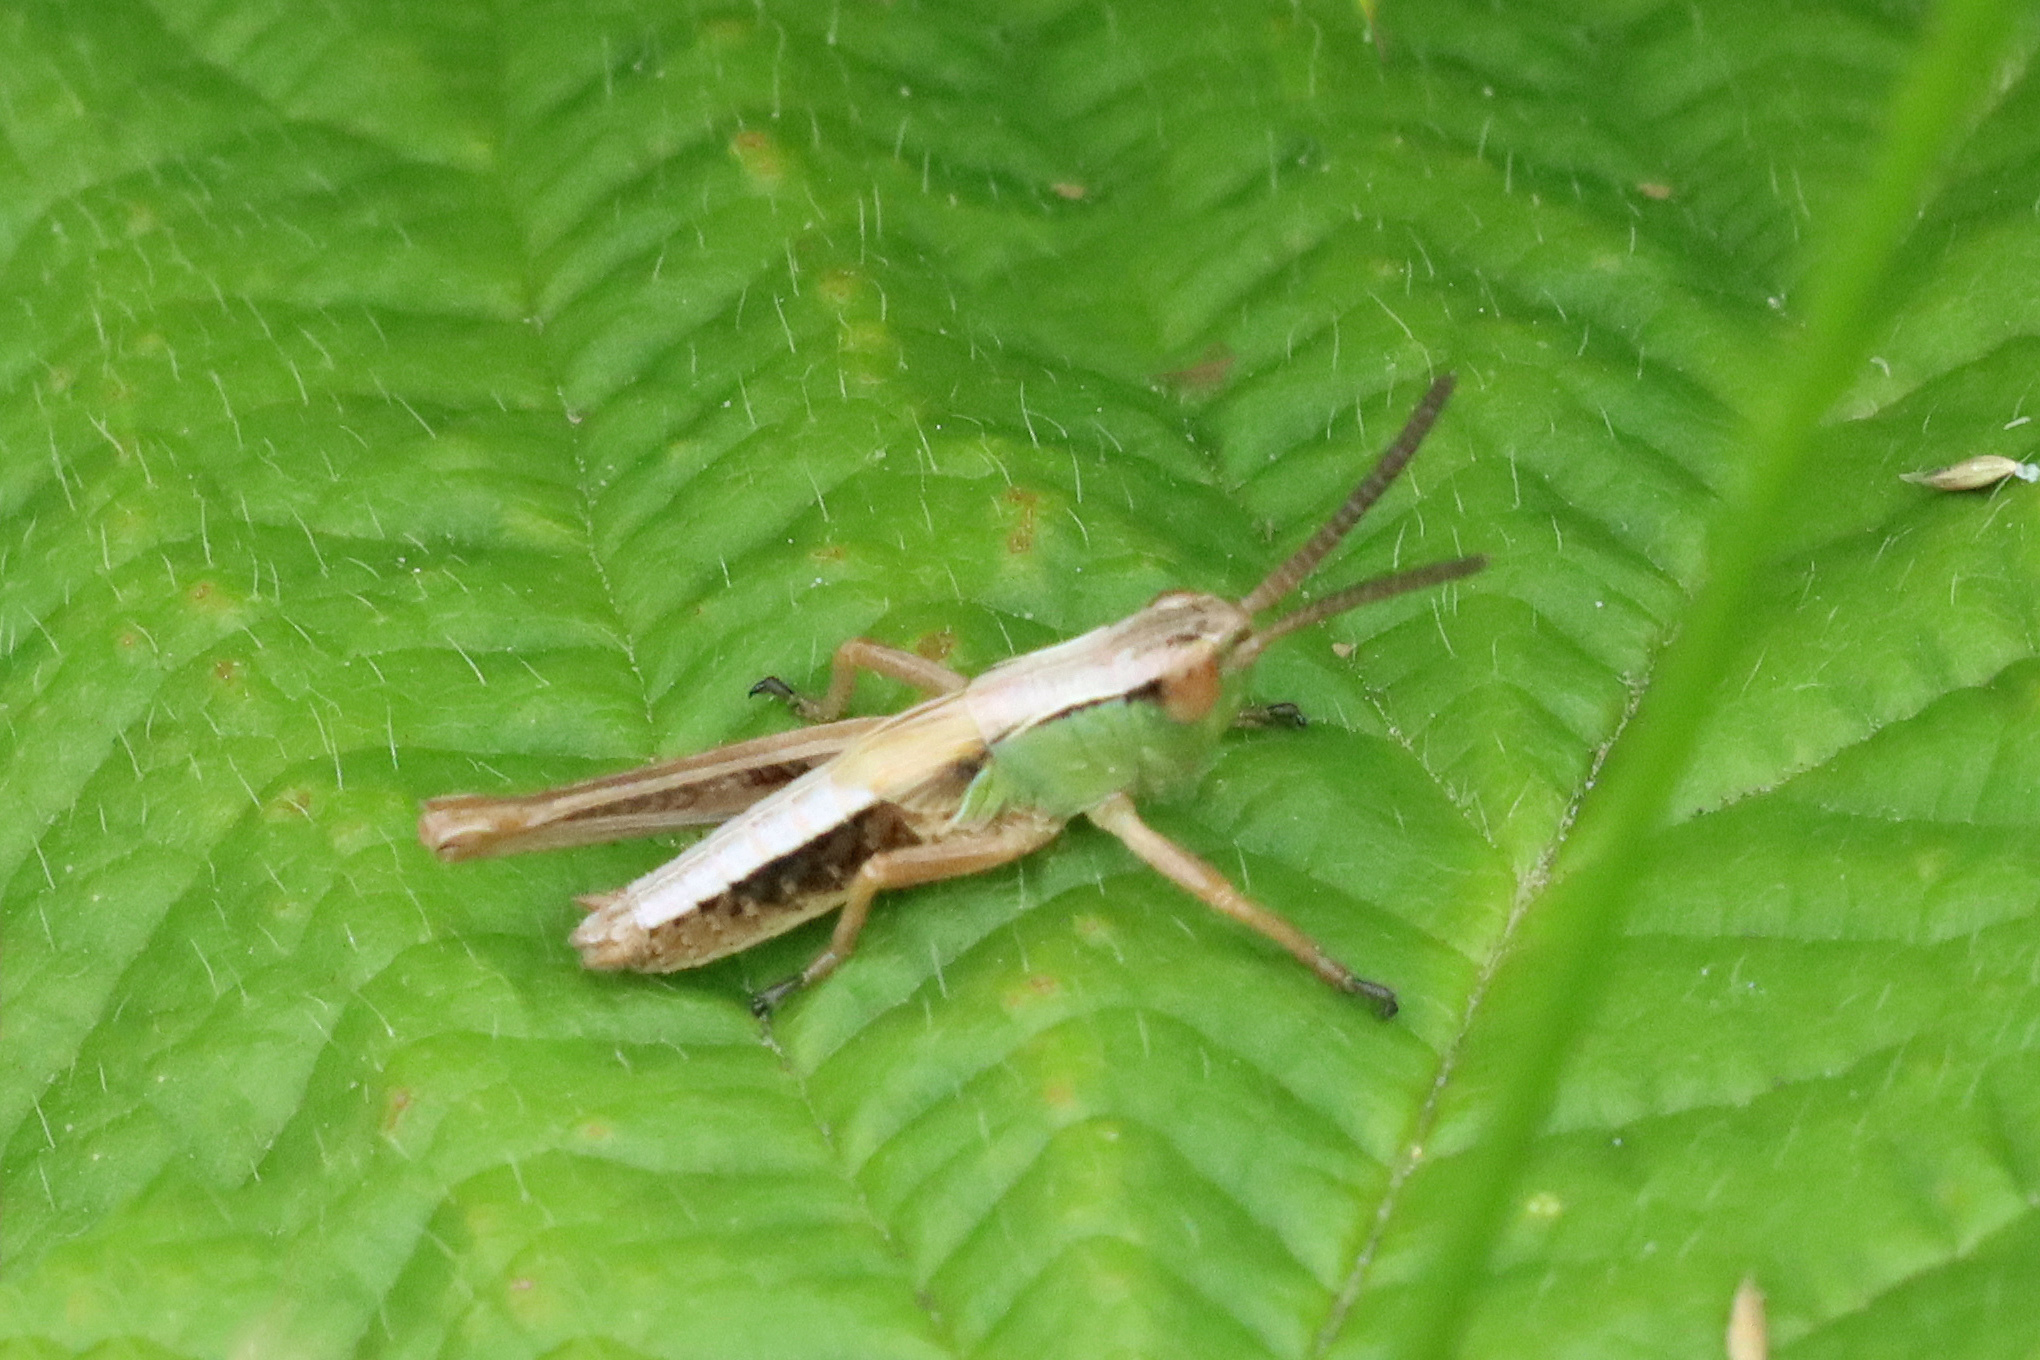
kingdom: Animalia
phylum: Arthropoda
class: Insecta
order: Orthoptera
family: Acrididae
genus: Pseudochorthippus
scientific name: Pseudochorthippus parallelus
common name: Meadow grasshopper
